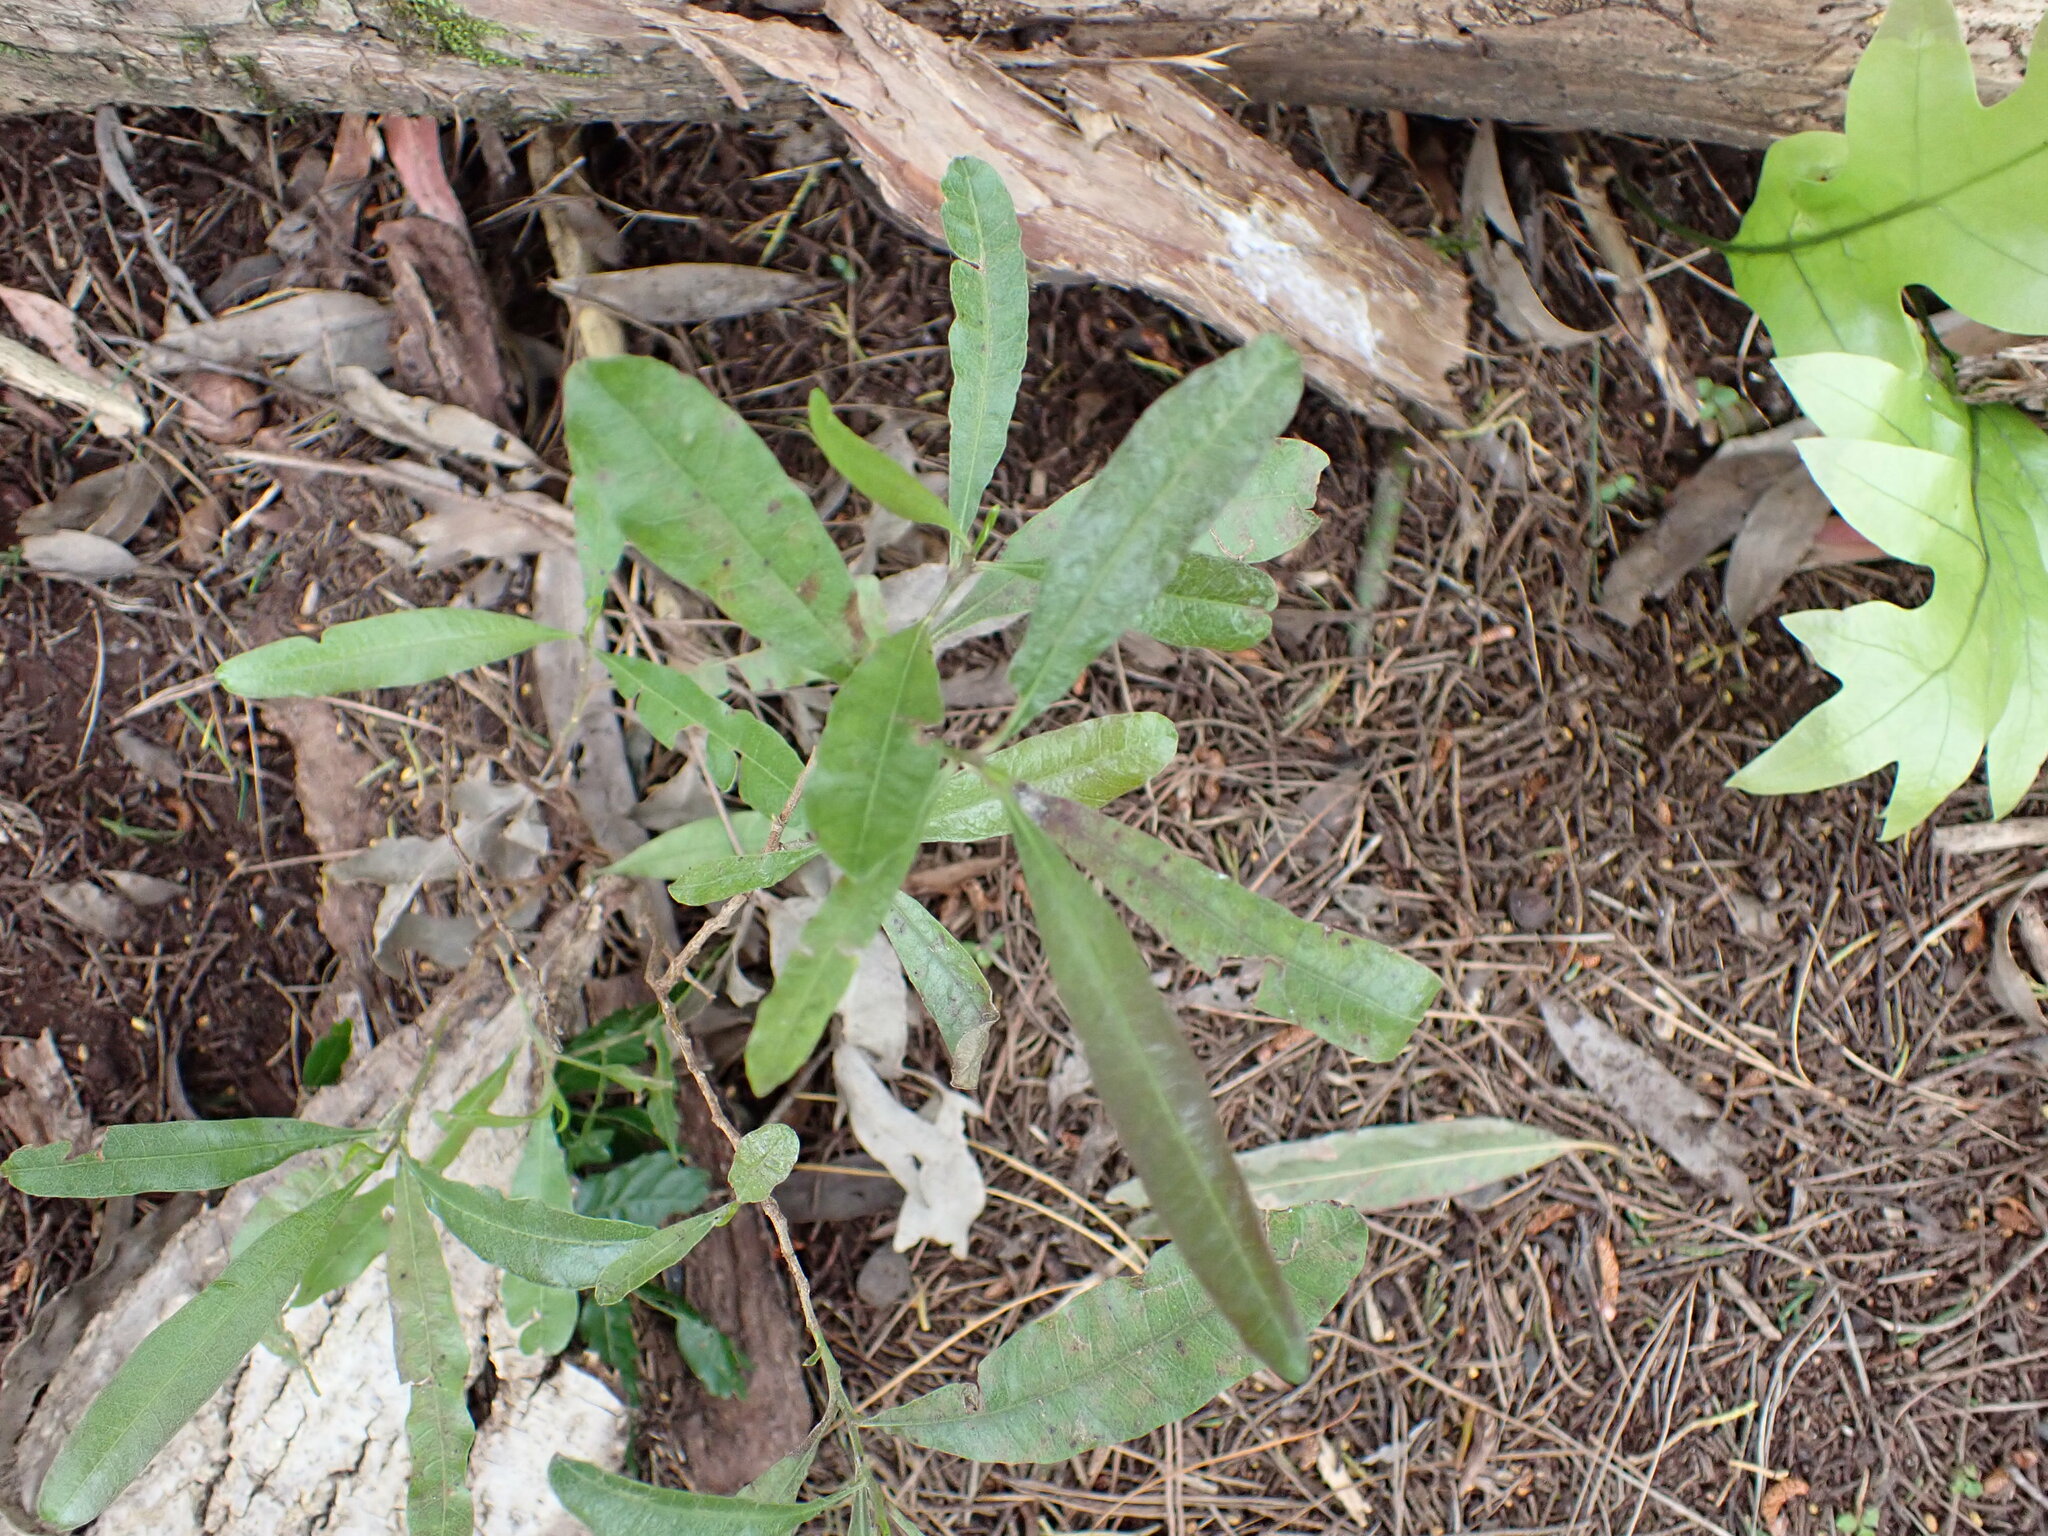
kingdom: Plantae
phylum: Tracheophyta
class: Magnoliopsida
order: Sapindales
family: Sapindaceae
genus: Dodonaea
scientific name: Dodonaea viscosa
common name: Hopbush
